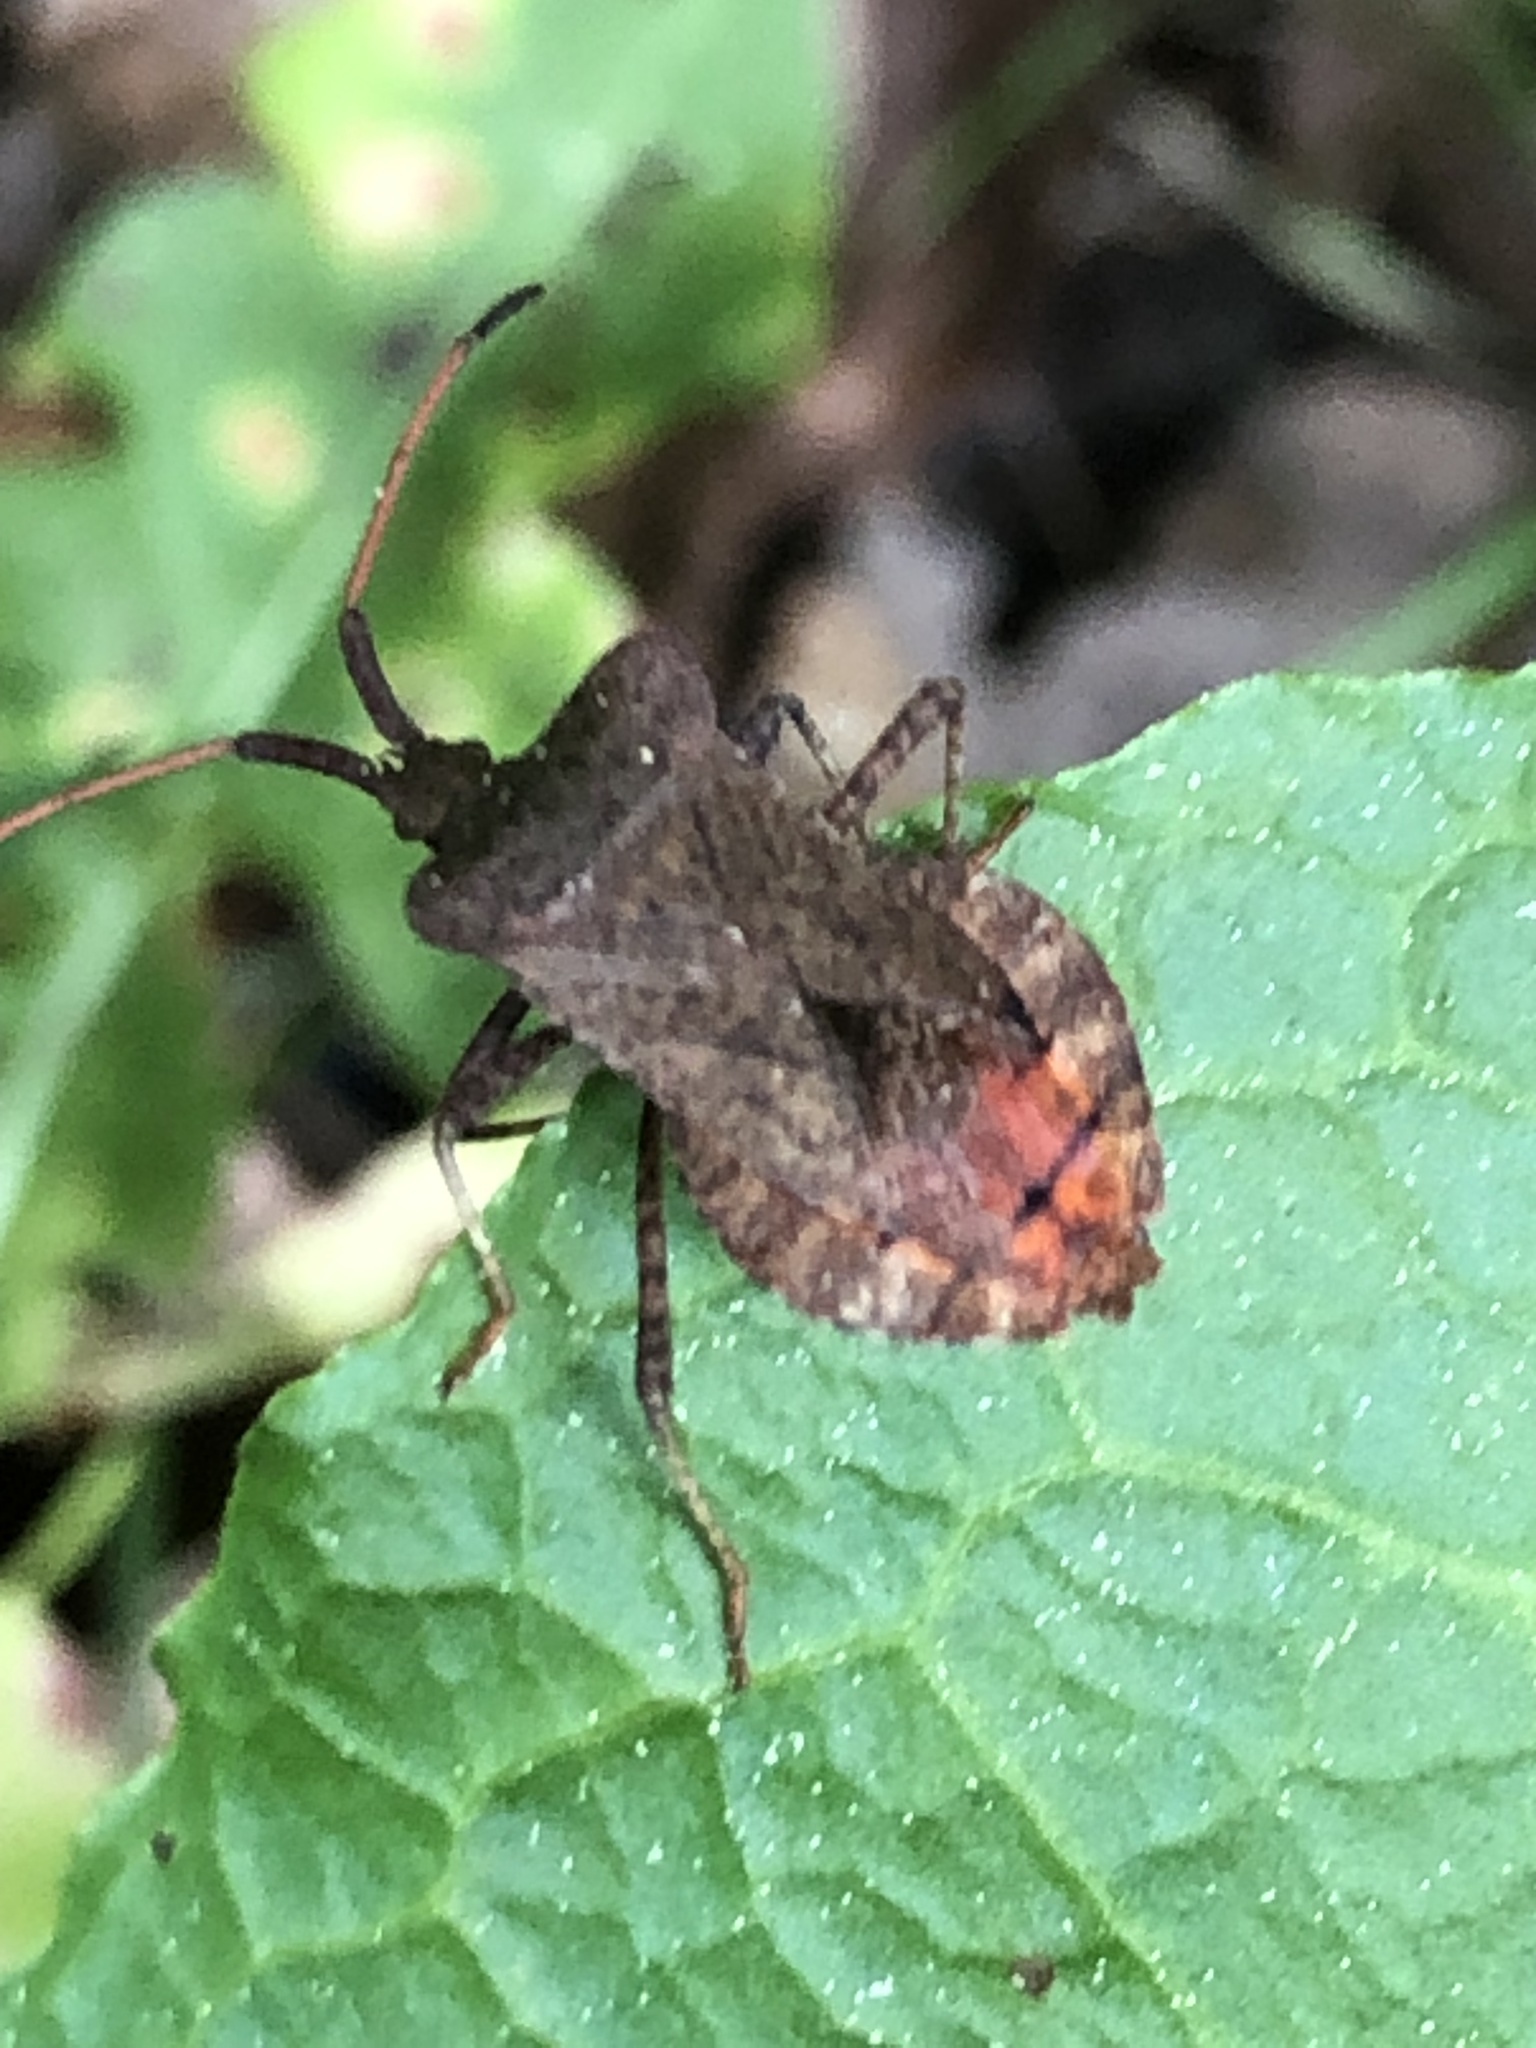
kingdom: Animalia
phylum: Arthropoda
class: Insecta
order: Hemiptera
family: Coreidae
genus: Coreus
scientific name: Coreus marginatus
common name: Dock bug
